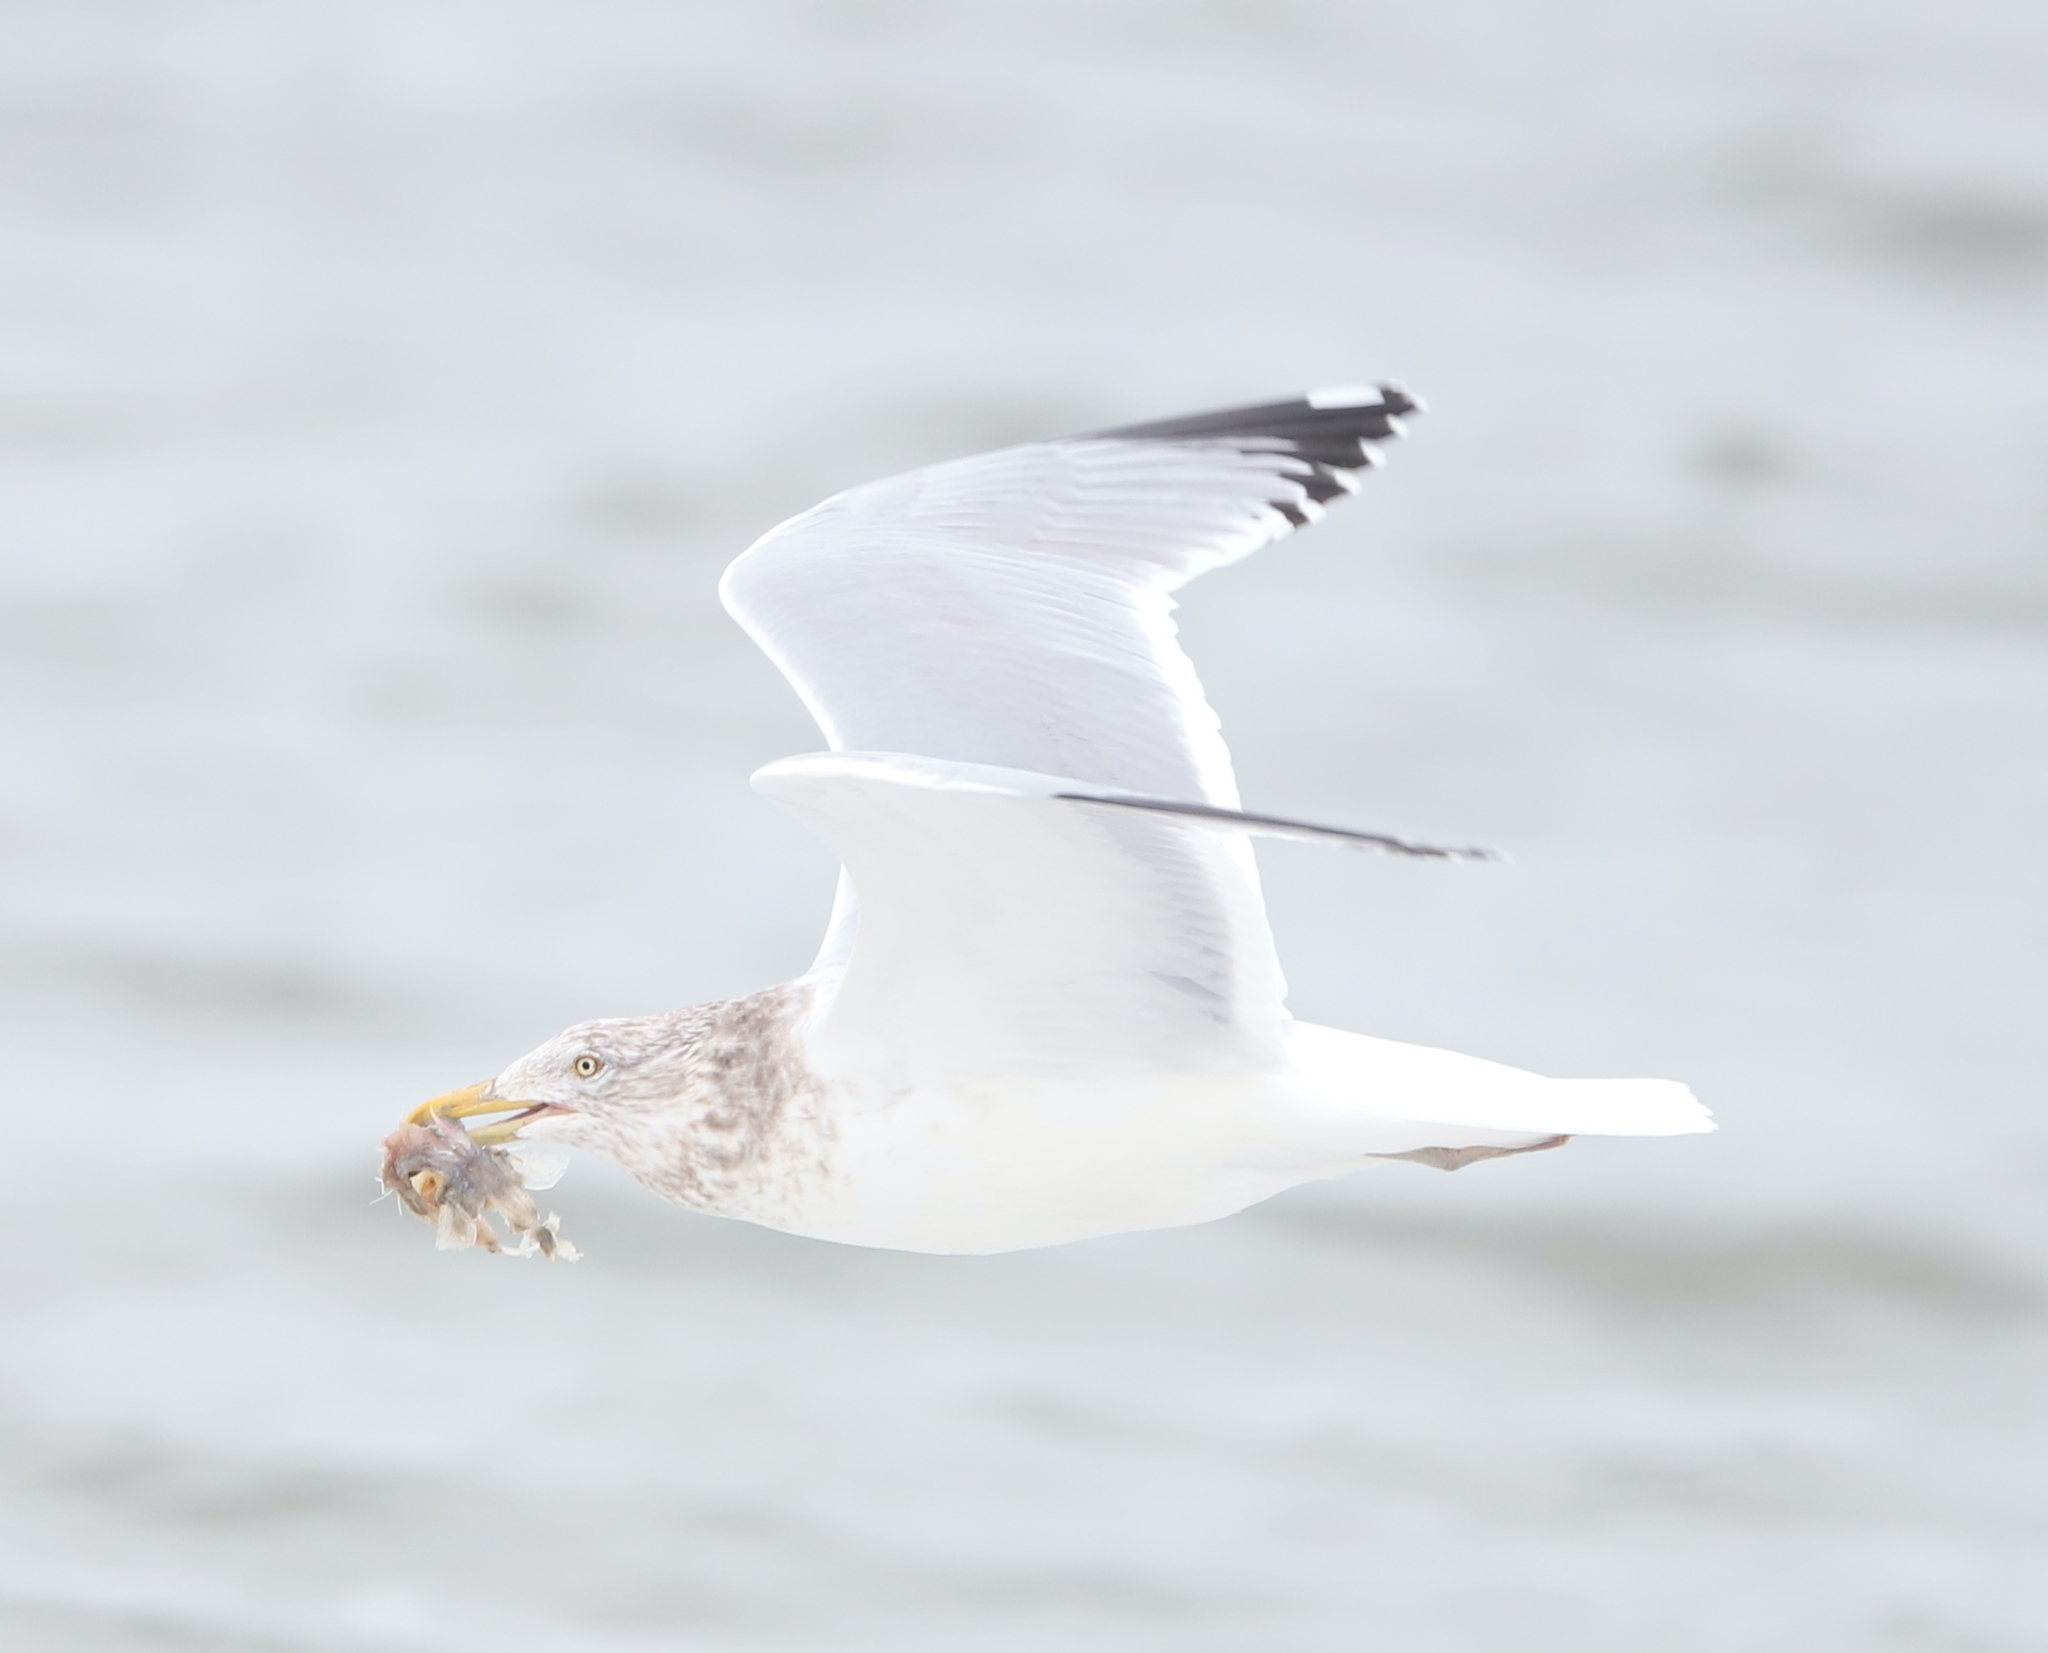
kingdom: Animalia
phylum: Chordata
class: Aves
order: Charadriiformes
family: Laridae
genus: Larus
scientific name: Larus argentatus
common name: Herring gull
